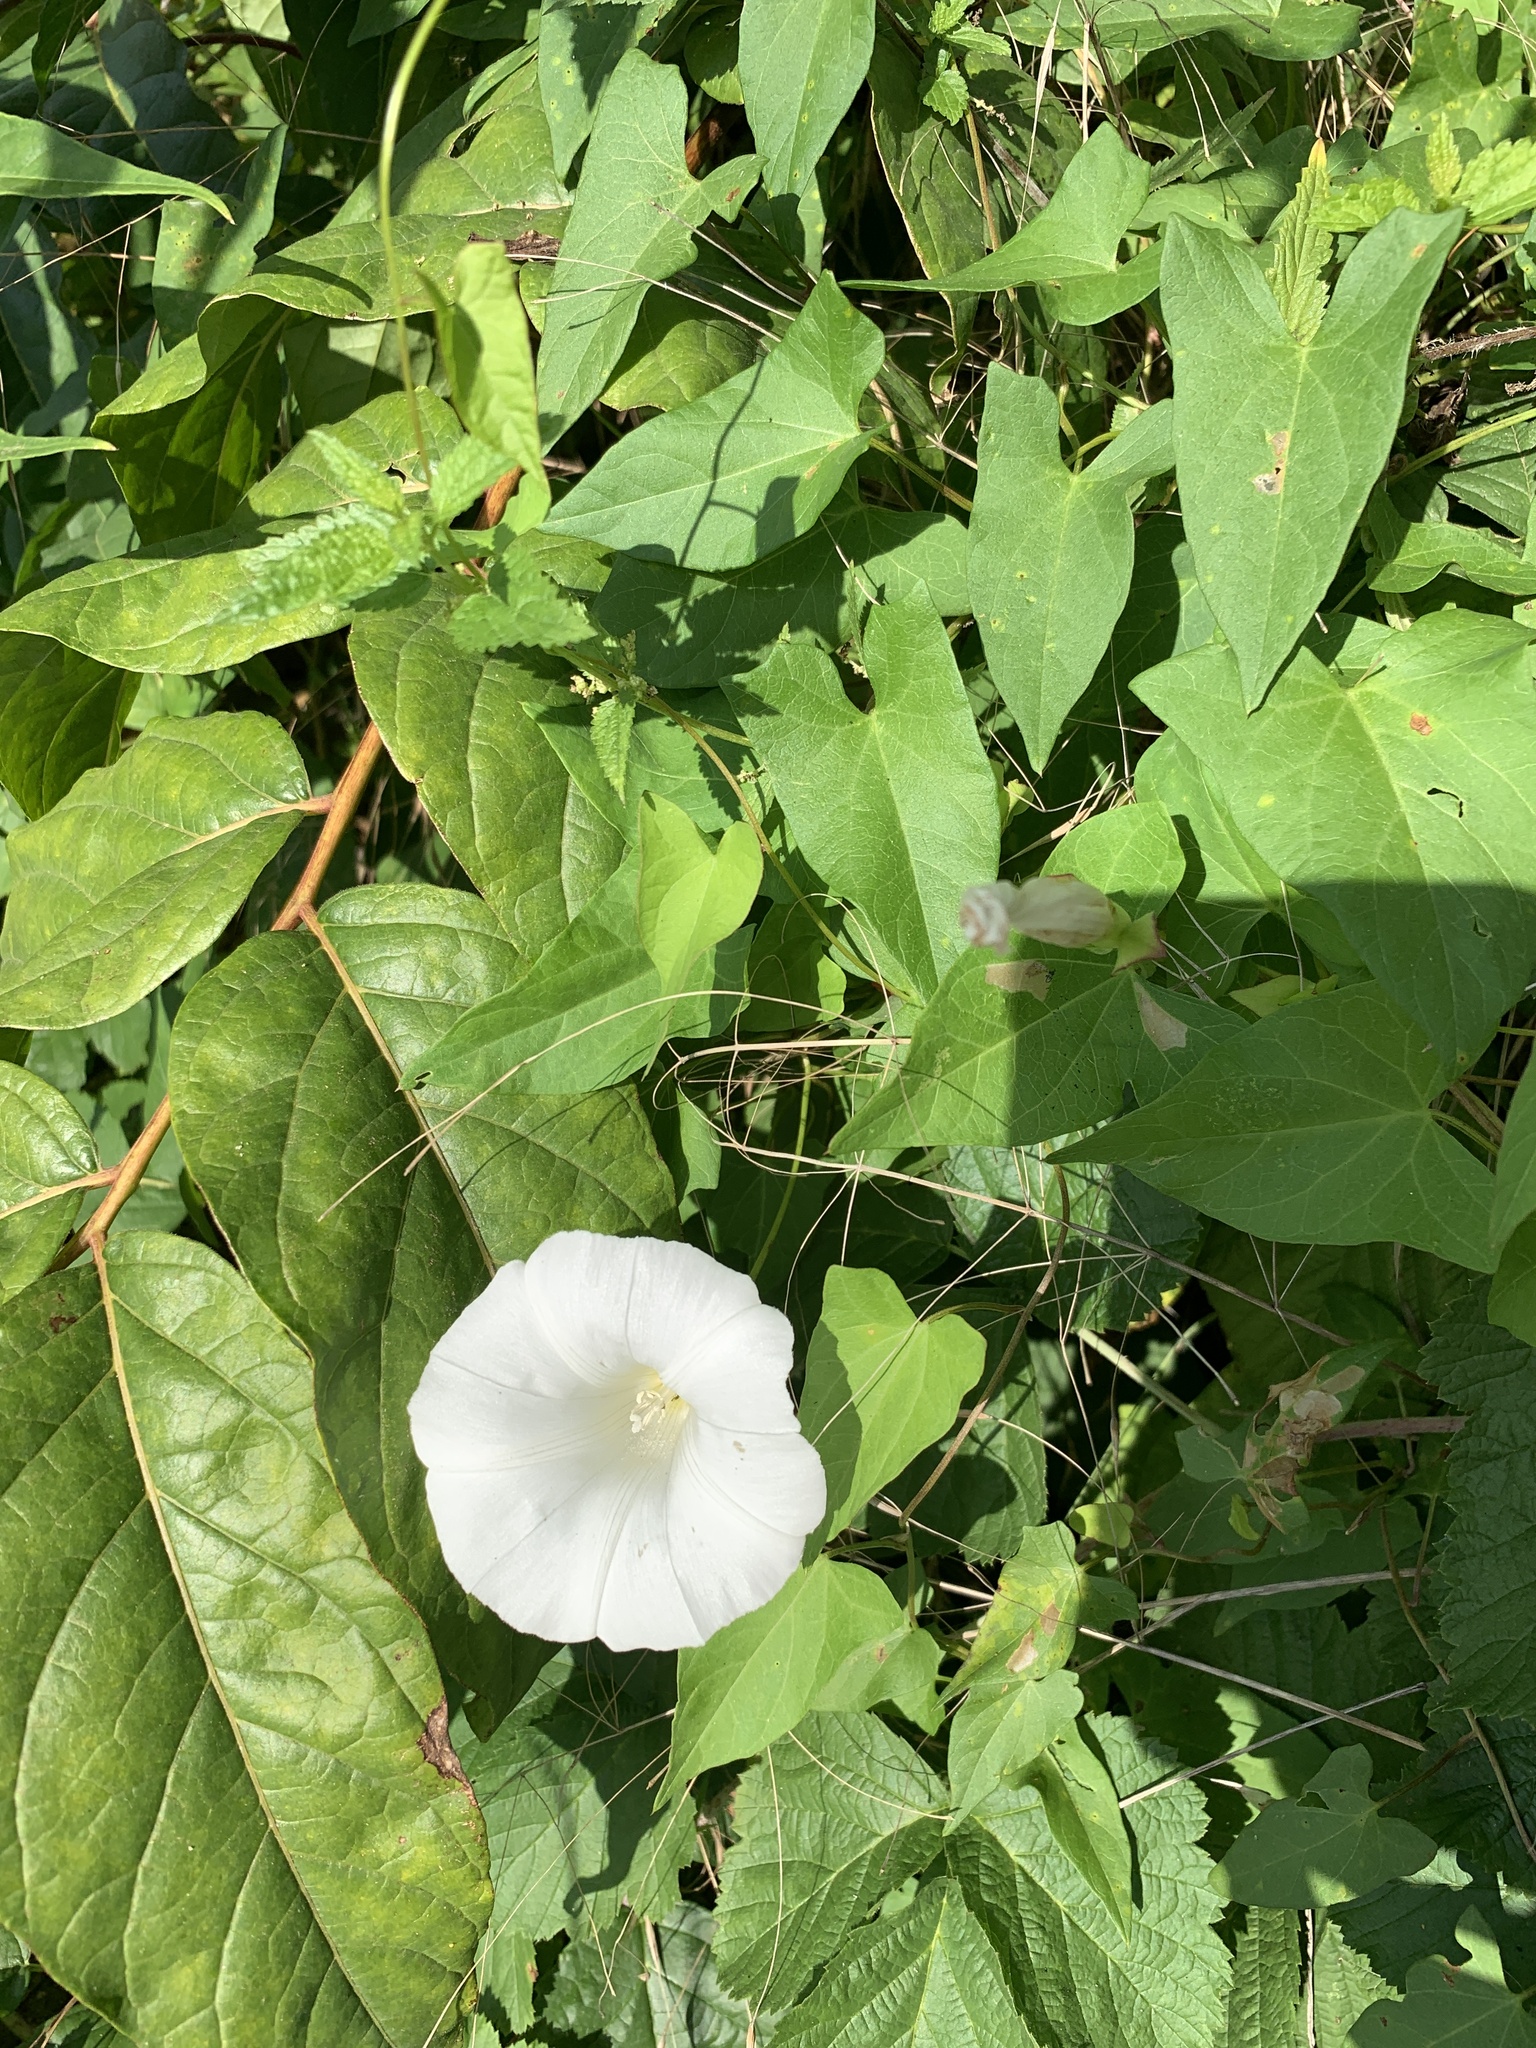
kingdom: Plantae
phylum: Tracheophyta
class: Magnoliopsida
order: Solanales
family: Convolvulaceae
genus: Calystegia
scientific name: Calystegia sepium
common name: Hedge bindweed
